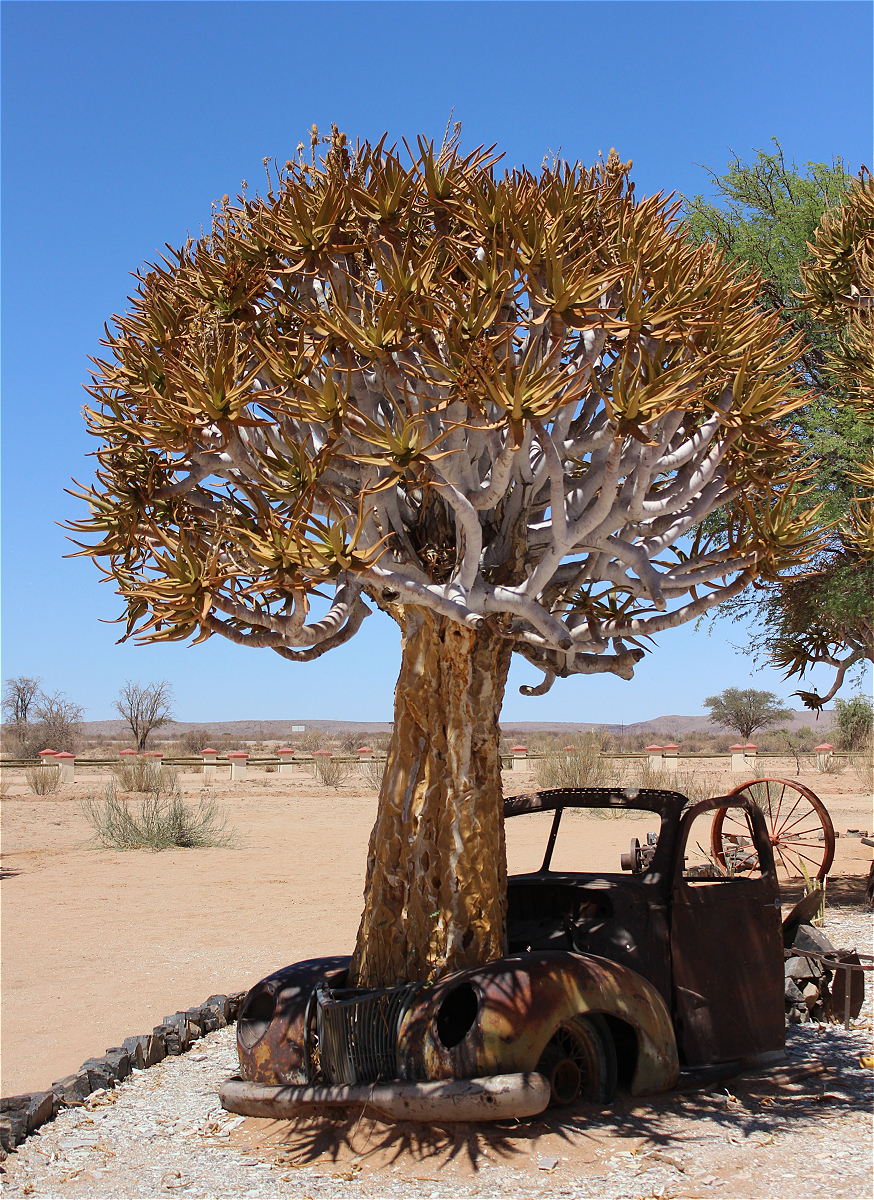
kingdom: Plantae
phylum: Tracheophyta
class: Liliopsida
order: Asparagales
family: Asphodelaceae
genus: Aloidendron
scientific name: Aloidendron dichotomum
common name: Quiver tree
